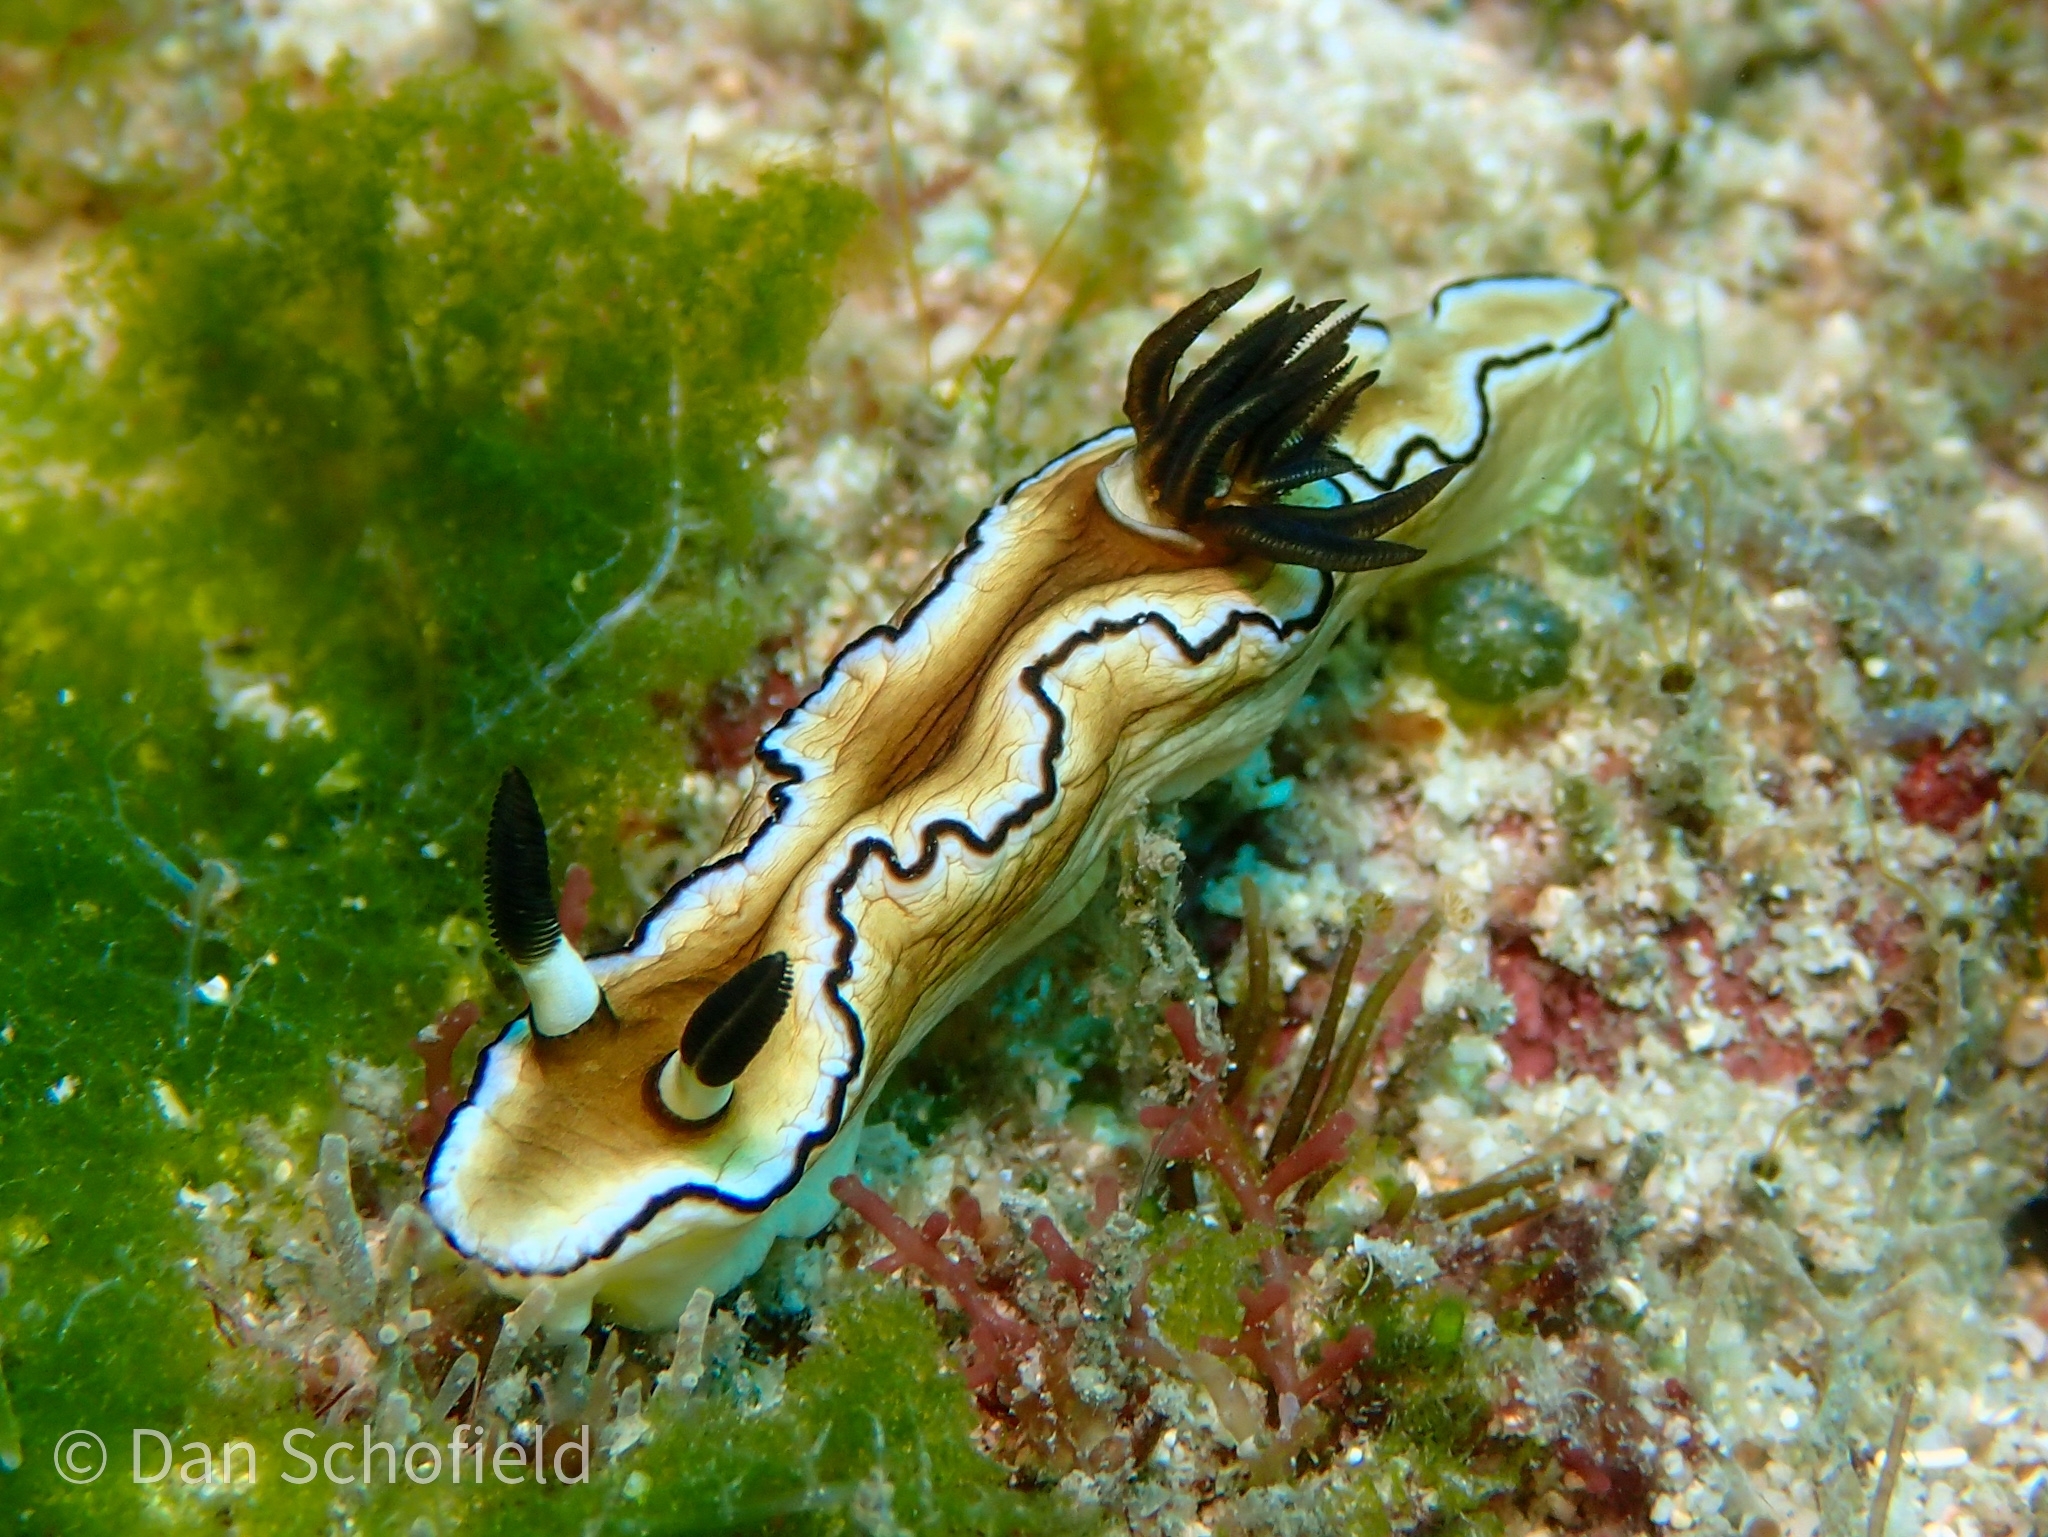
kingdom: Animalia
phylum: Mollusca
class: Gastropoda
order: Nudibranchia
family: Chromodorididae
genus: Doriprismatica
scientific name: Doriprismatica atromarginata
